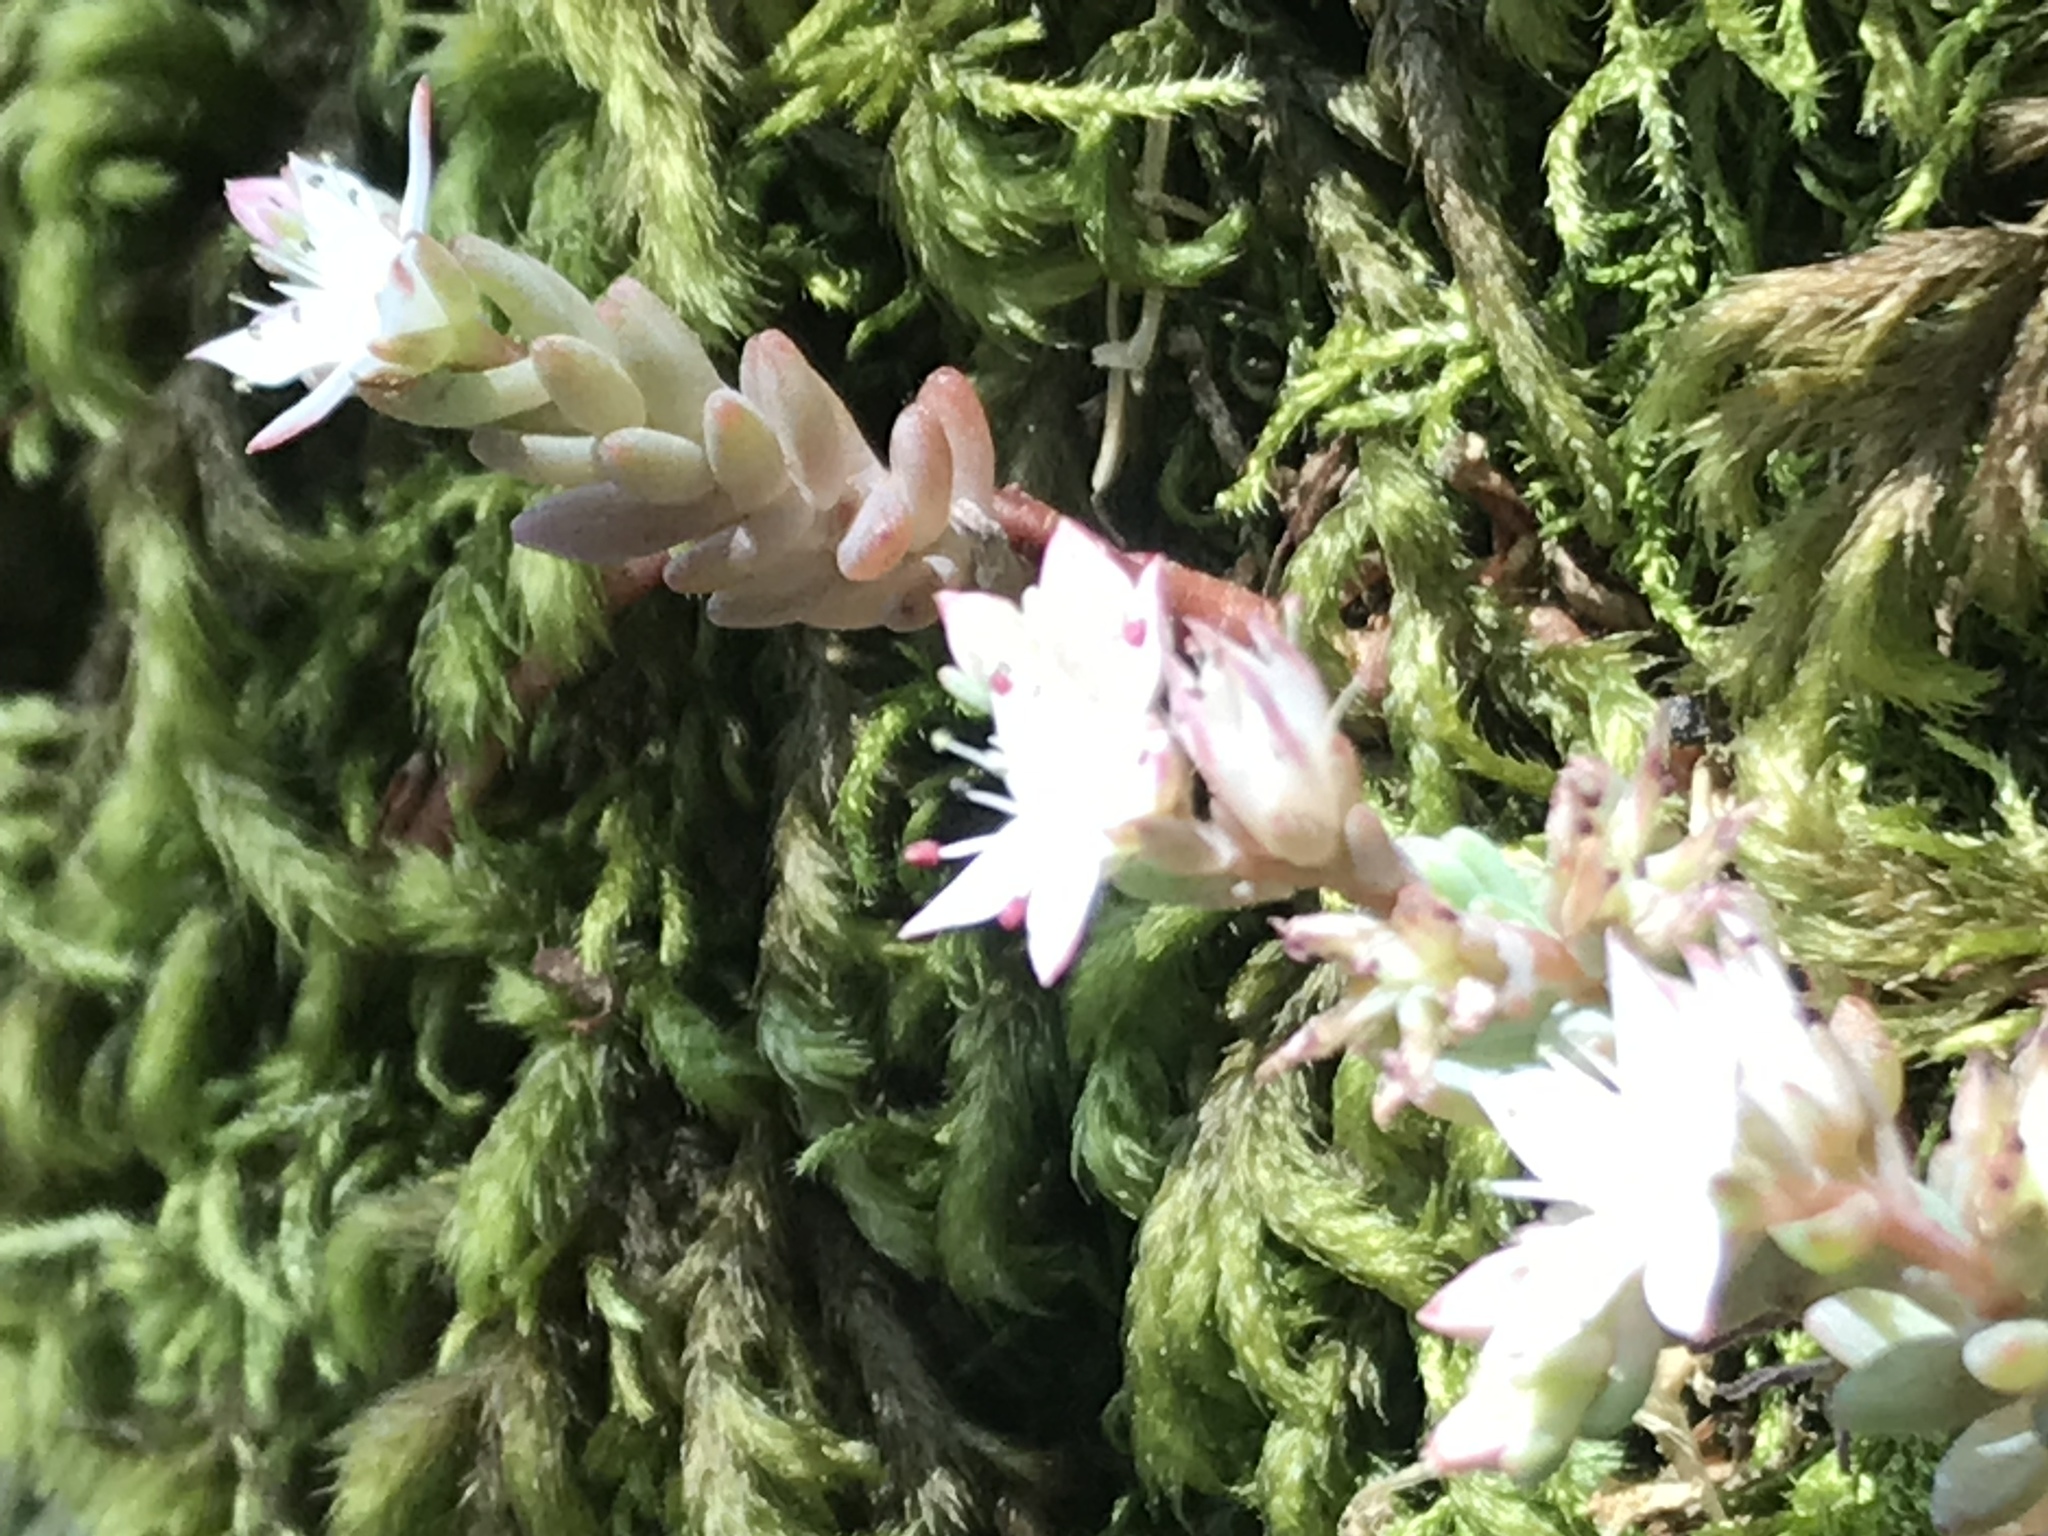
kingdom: Plantae
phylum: Tracheophyta
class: Magnoliopsida
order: Saxifragales
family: Crassulaceae
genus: Sedum
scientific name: Sedum potosinum
